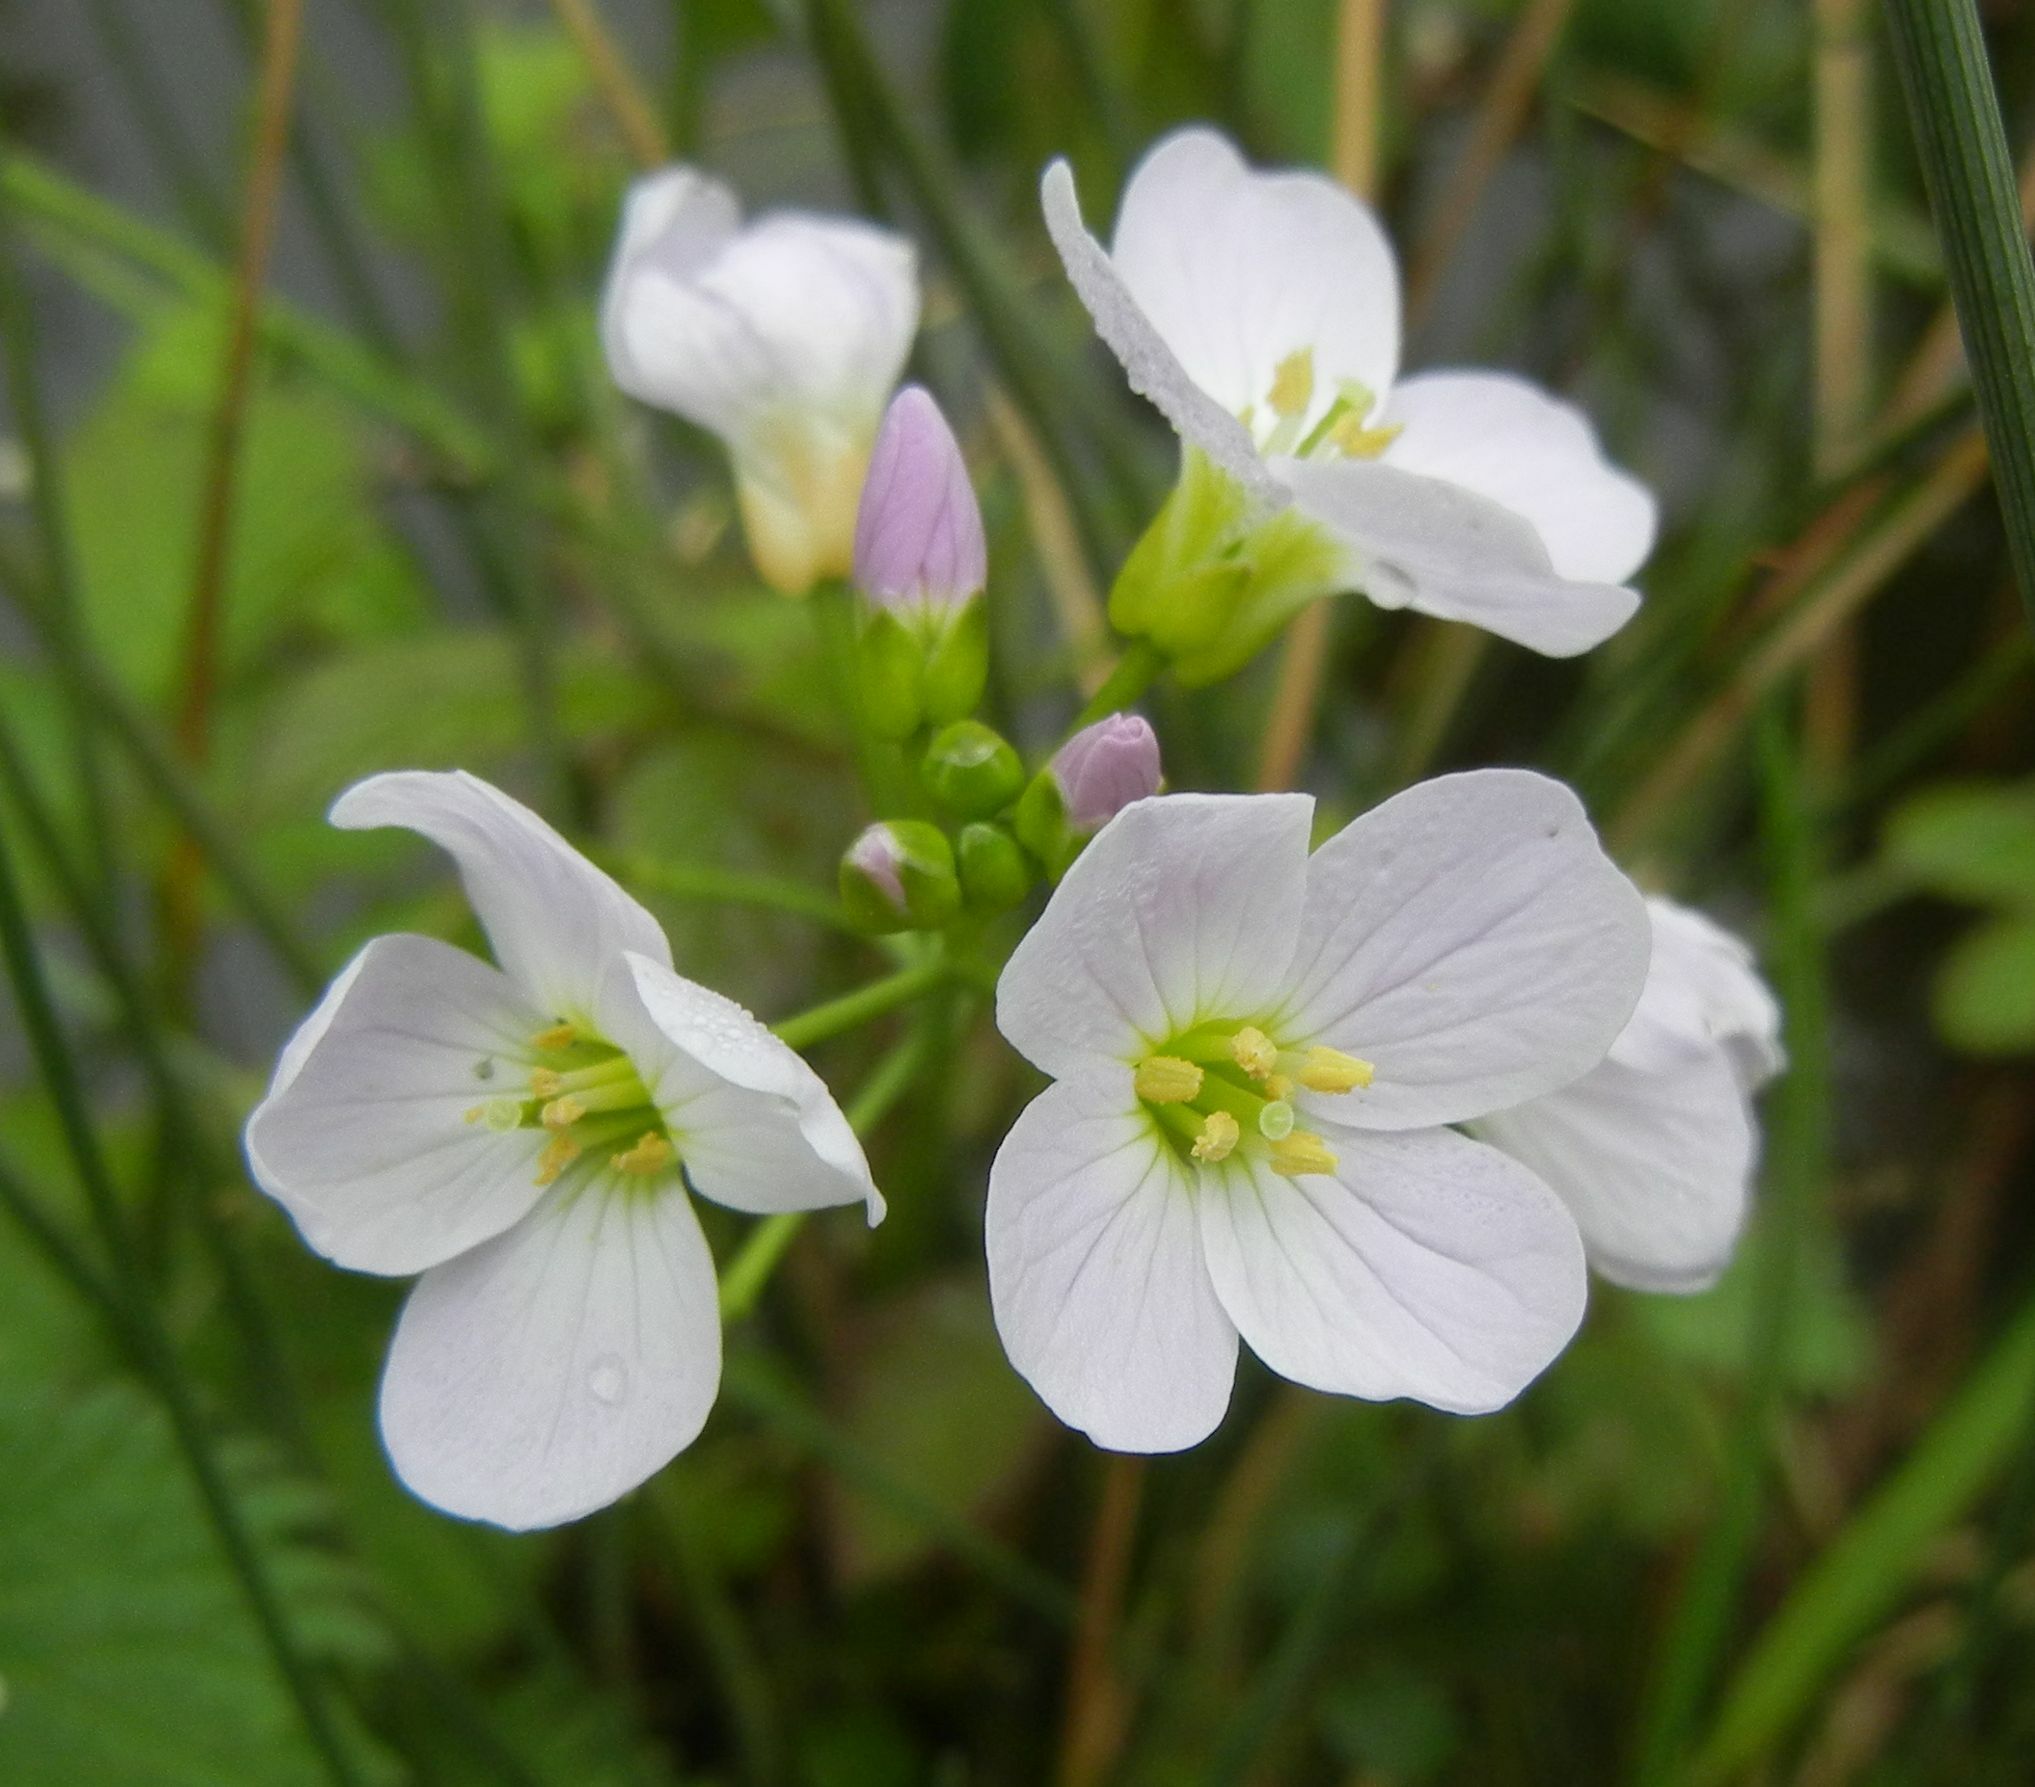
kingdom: Plantae
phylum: Tracheophyta
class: Magnoliopsida
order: Brassicales
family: Brassicaceae
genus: Cardamine
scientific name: Cardamine pratensis
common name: Cuckoo flower
